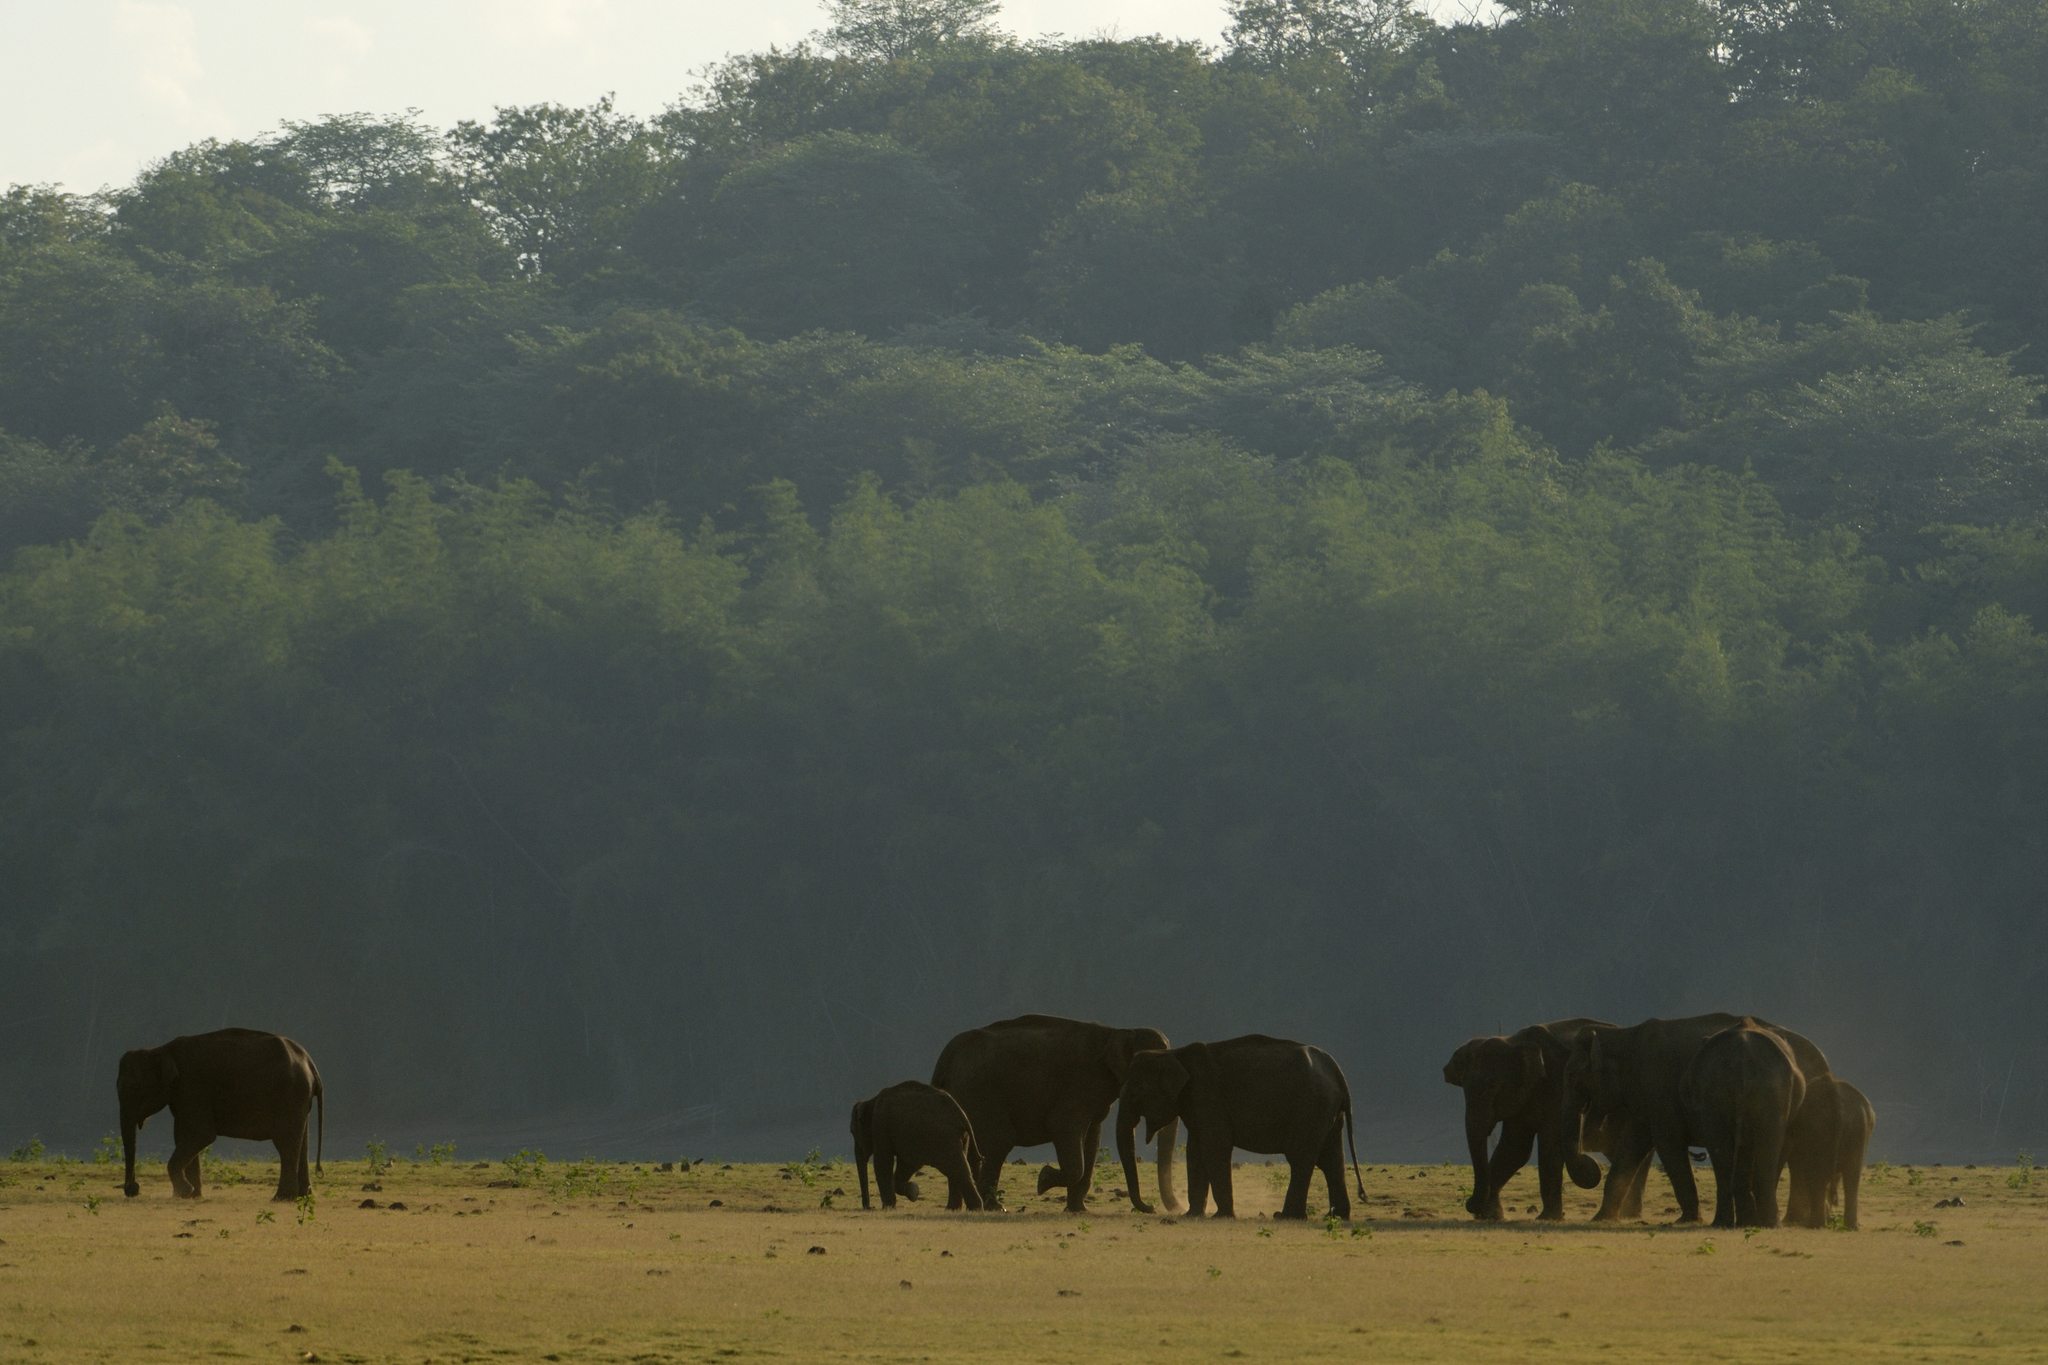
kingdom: Animalia
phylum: Chordata
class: Mammalia
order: Proboscidea
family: Elephantidae
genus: Elephas
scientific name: Elephas maximus
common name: Asian elephant
